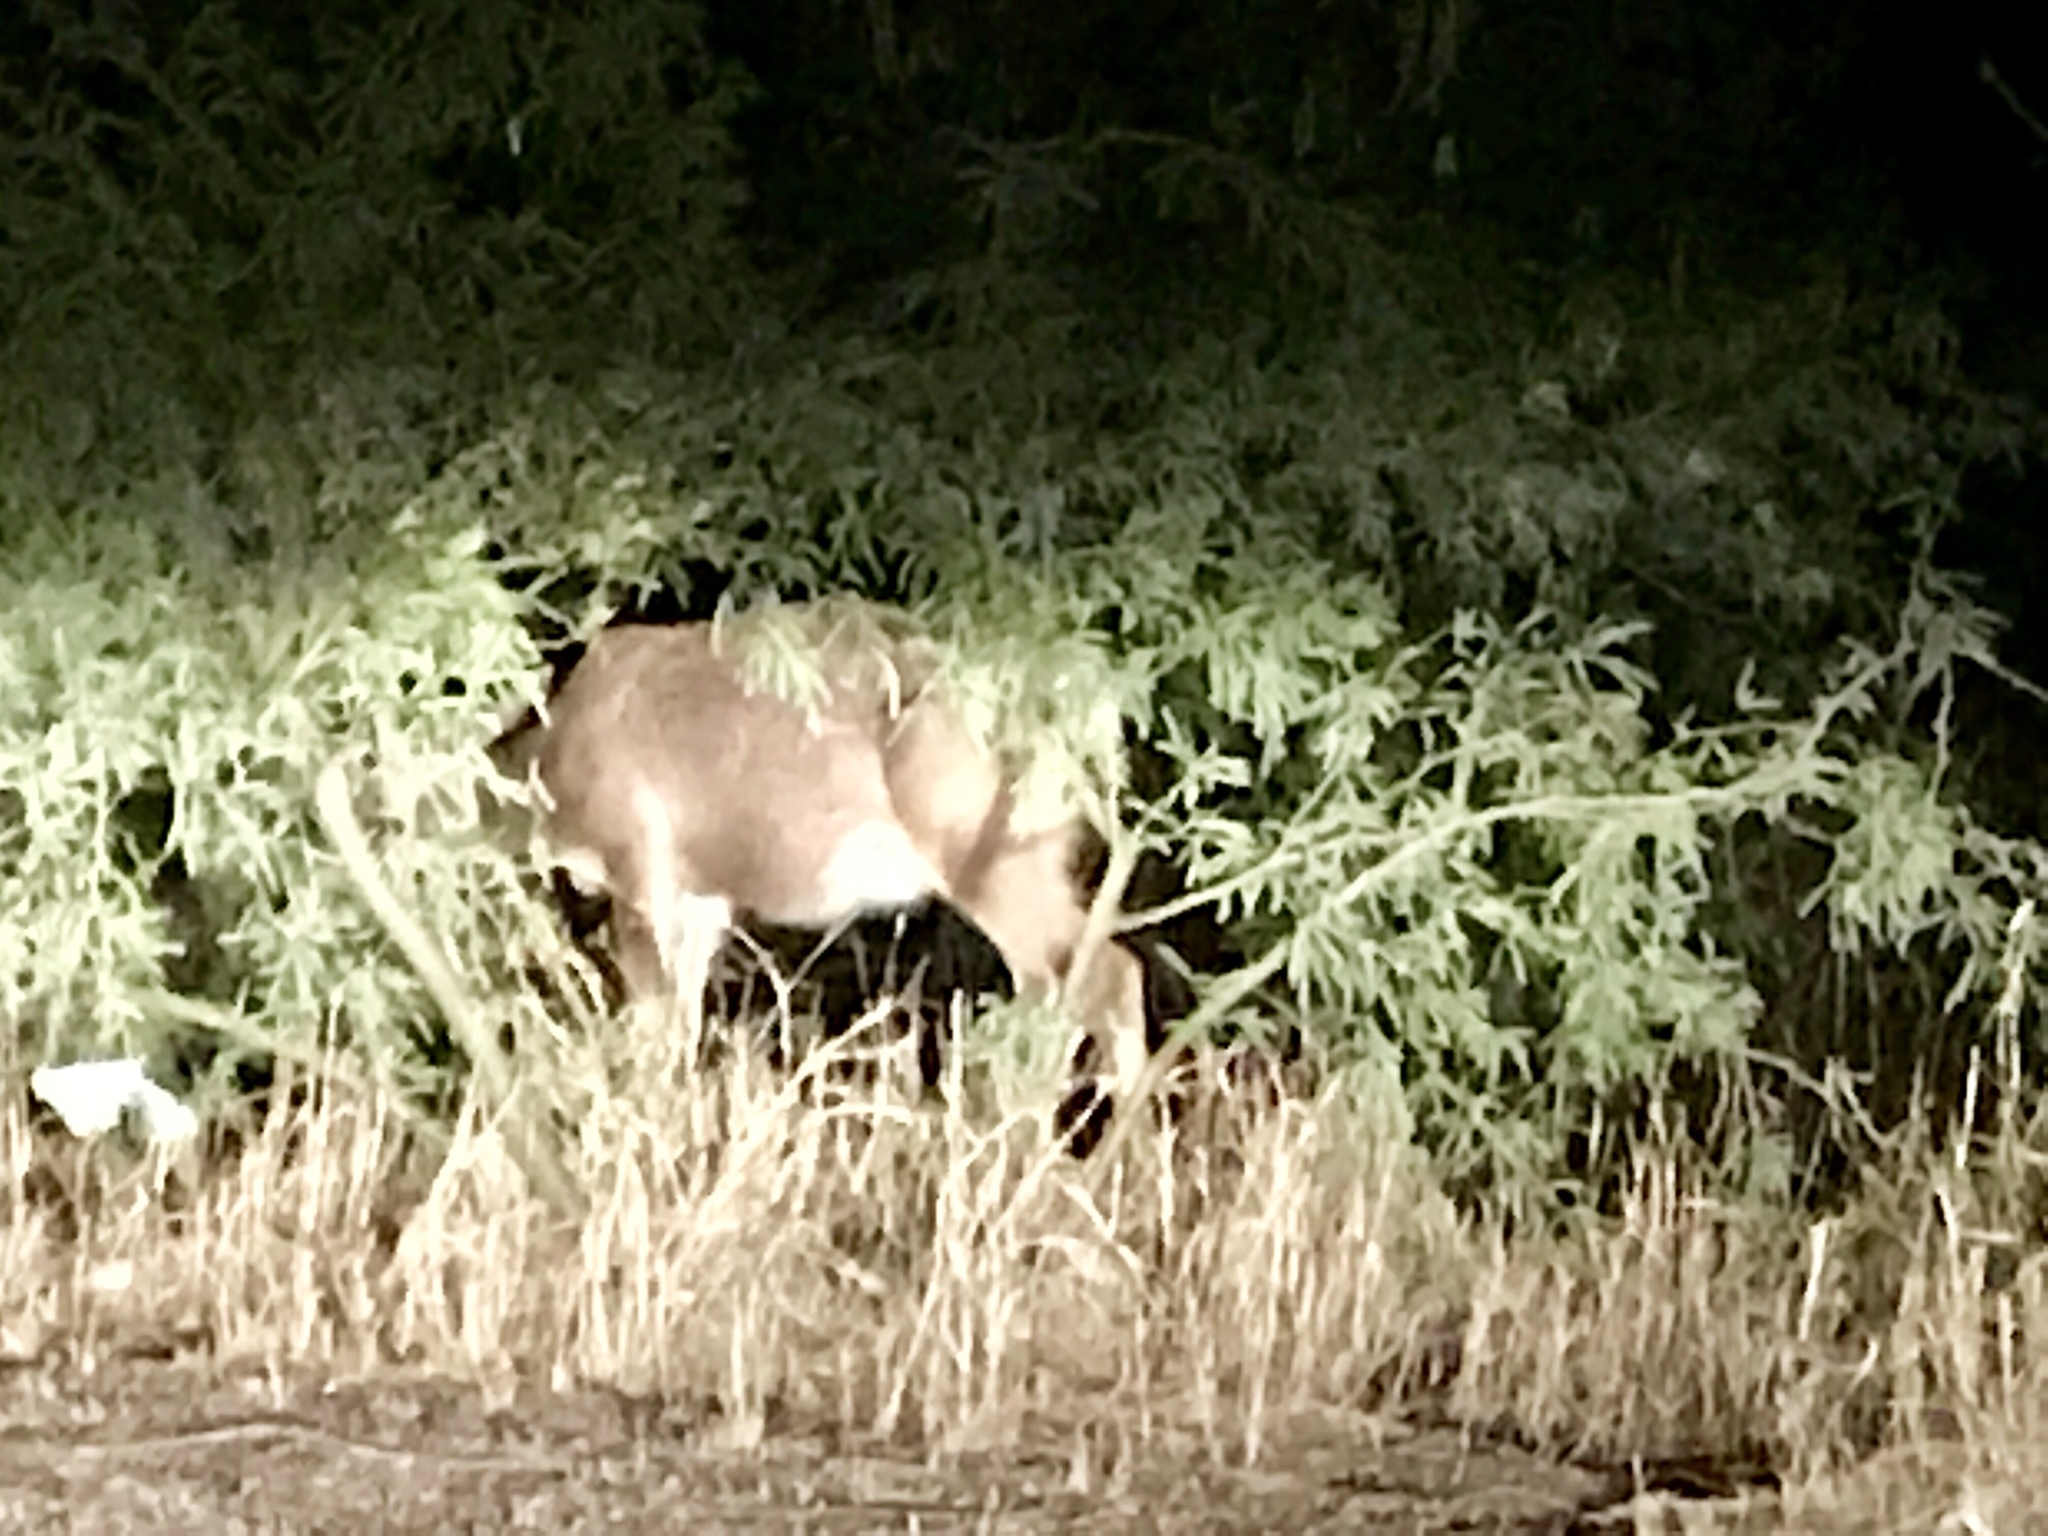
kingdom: Animalia
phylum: Chordata
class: Mammalia
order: Artiodactyla
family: Cervidae
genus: Odocoileus
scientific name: Odocoileus hemionus
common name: Mule deer
